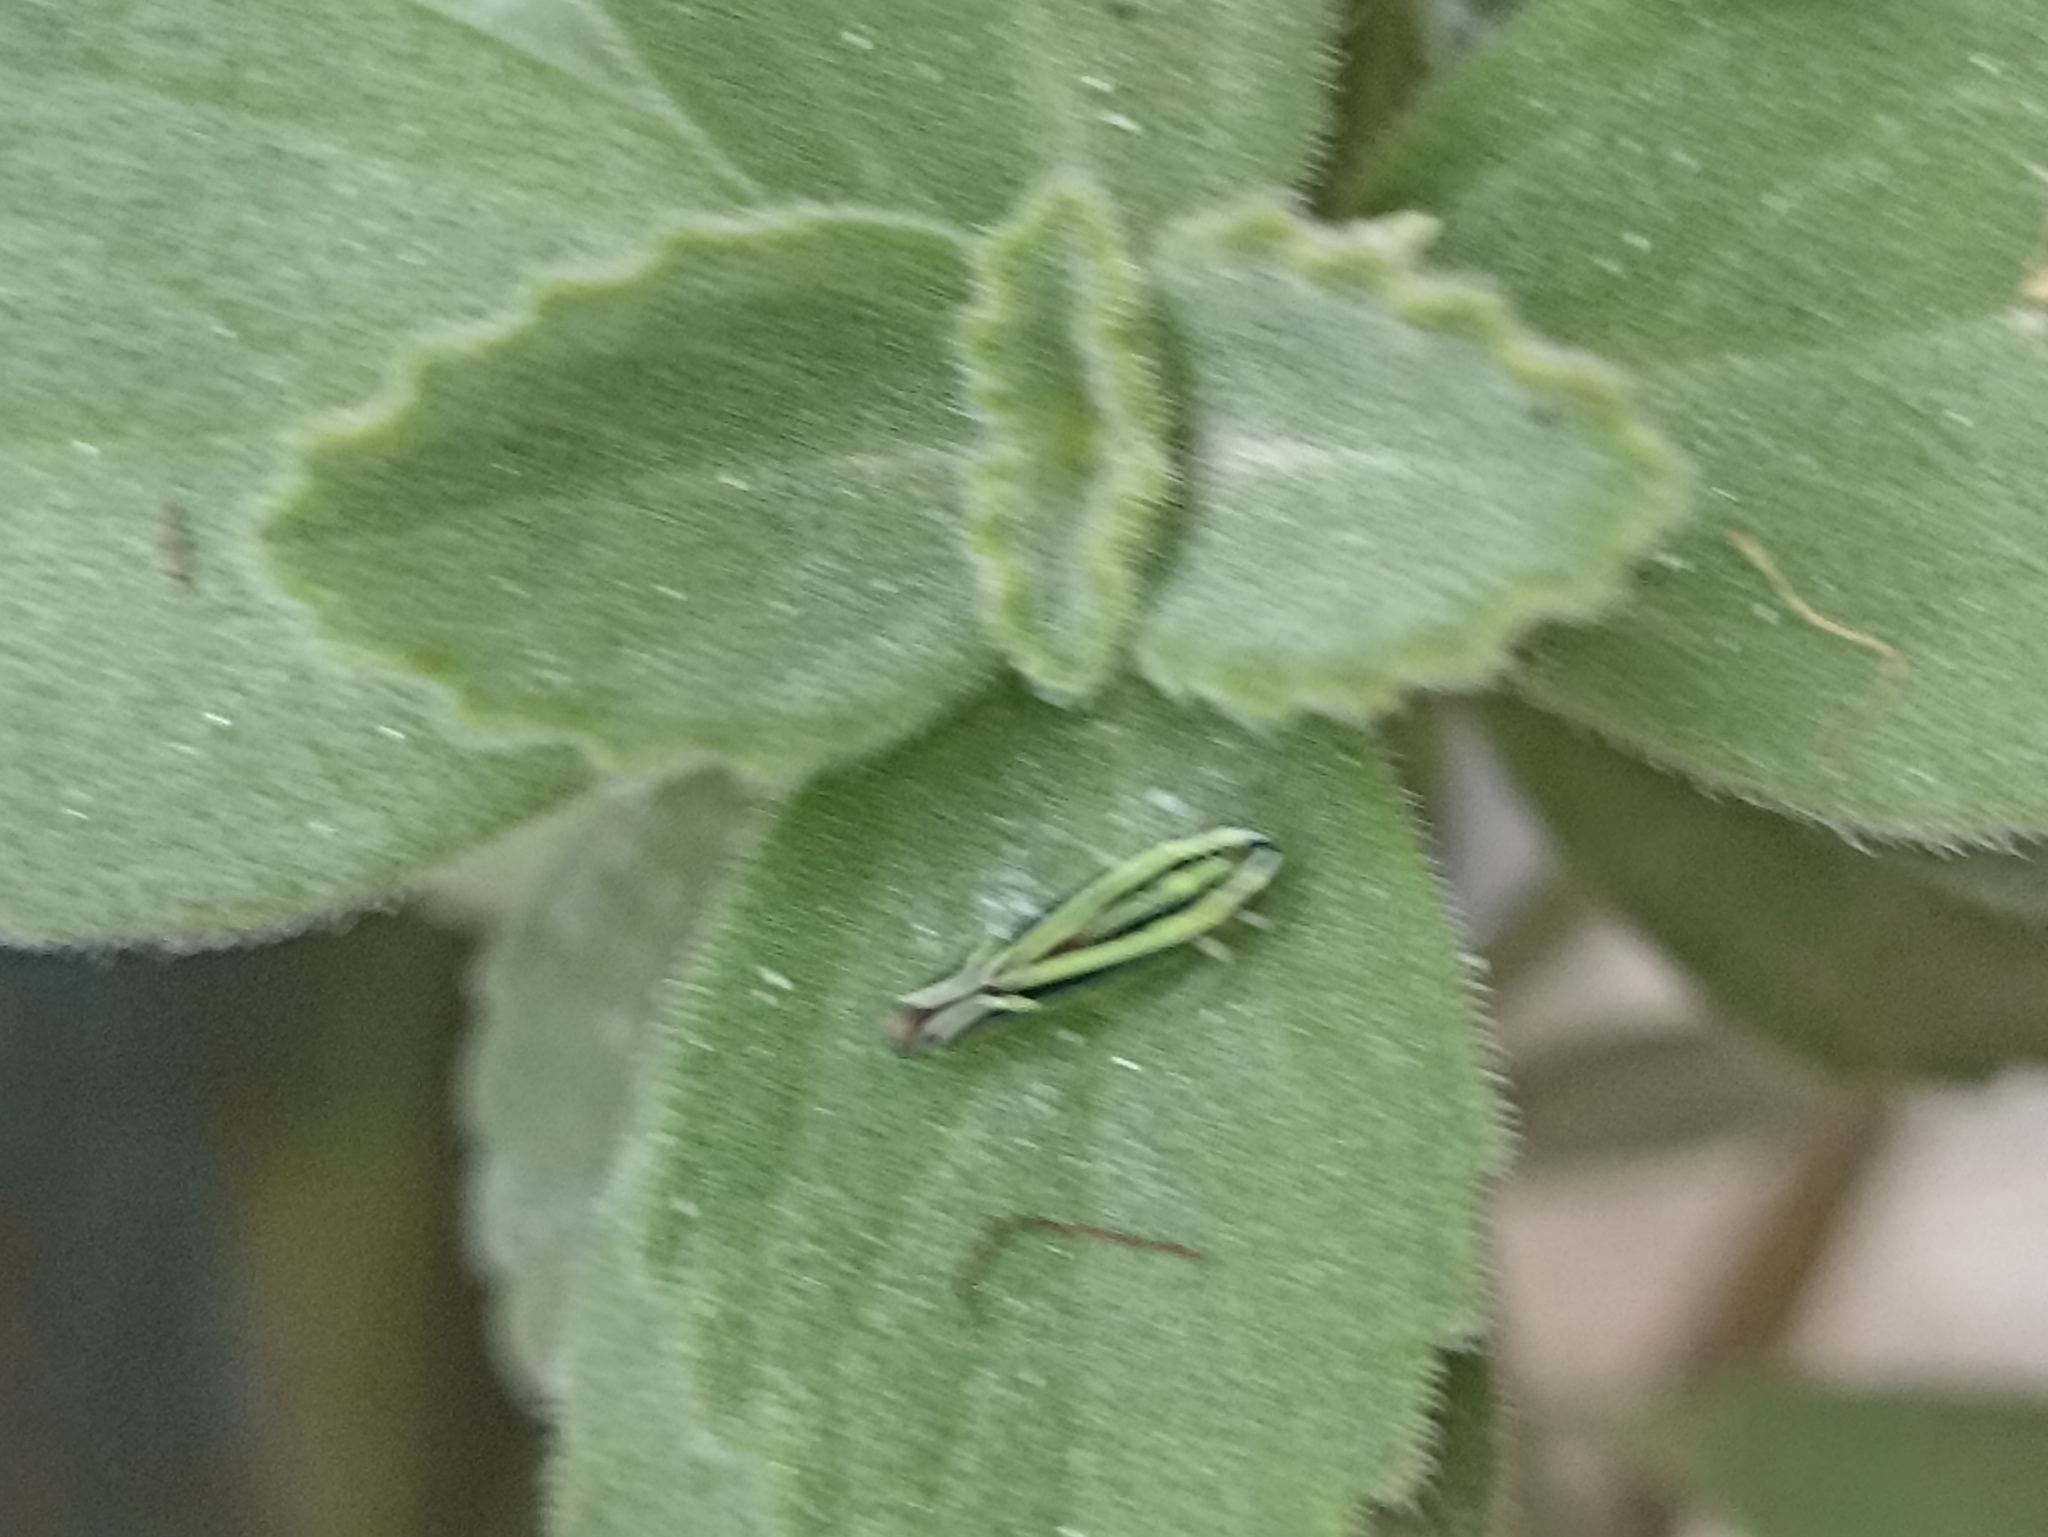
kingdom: Animalia
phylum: Arthropoda
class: Insecta
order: Hemiptera
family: Cicadellidae
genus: Sibovia
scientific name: Sibovia sagata
